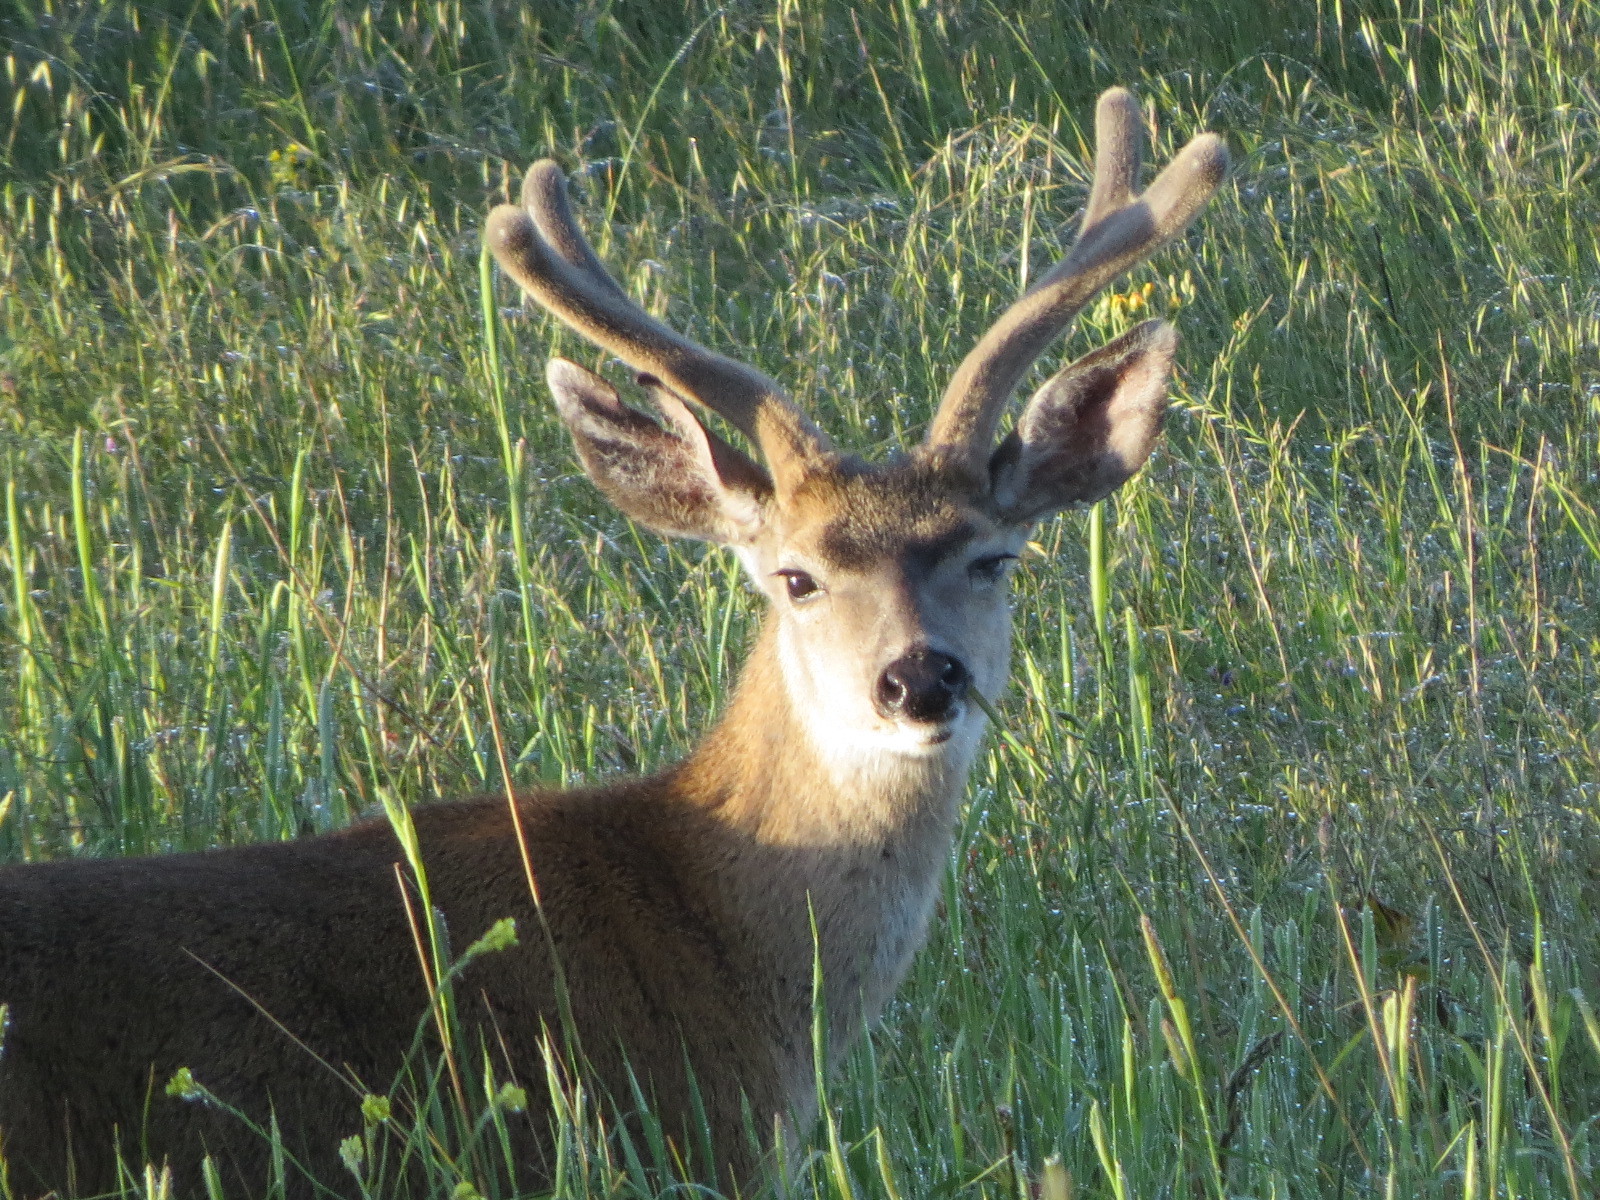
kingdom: Animalia
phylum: Chordata
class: Mammalia
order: Artiodactyla
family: Cervidae
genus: Odocoileus
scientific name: Odocoileus hemionus
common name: Mule deer
